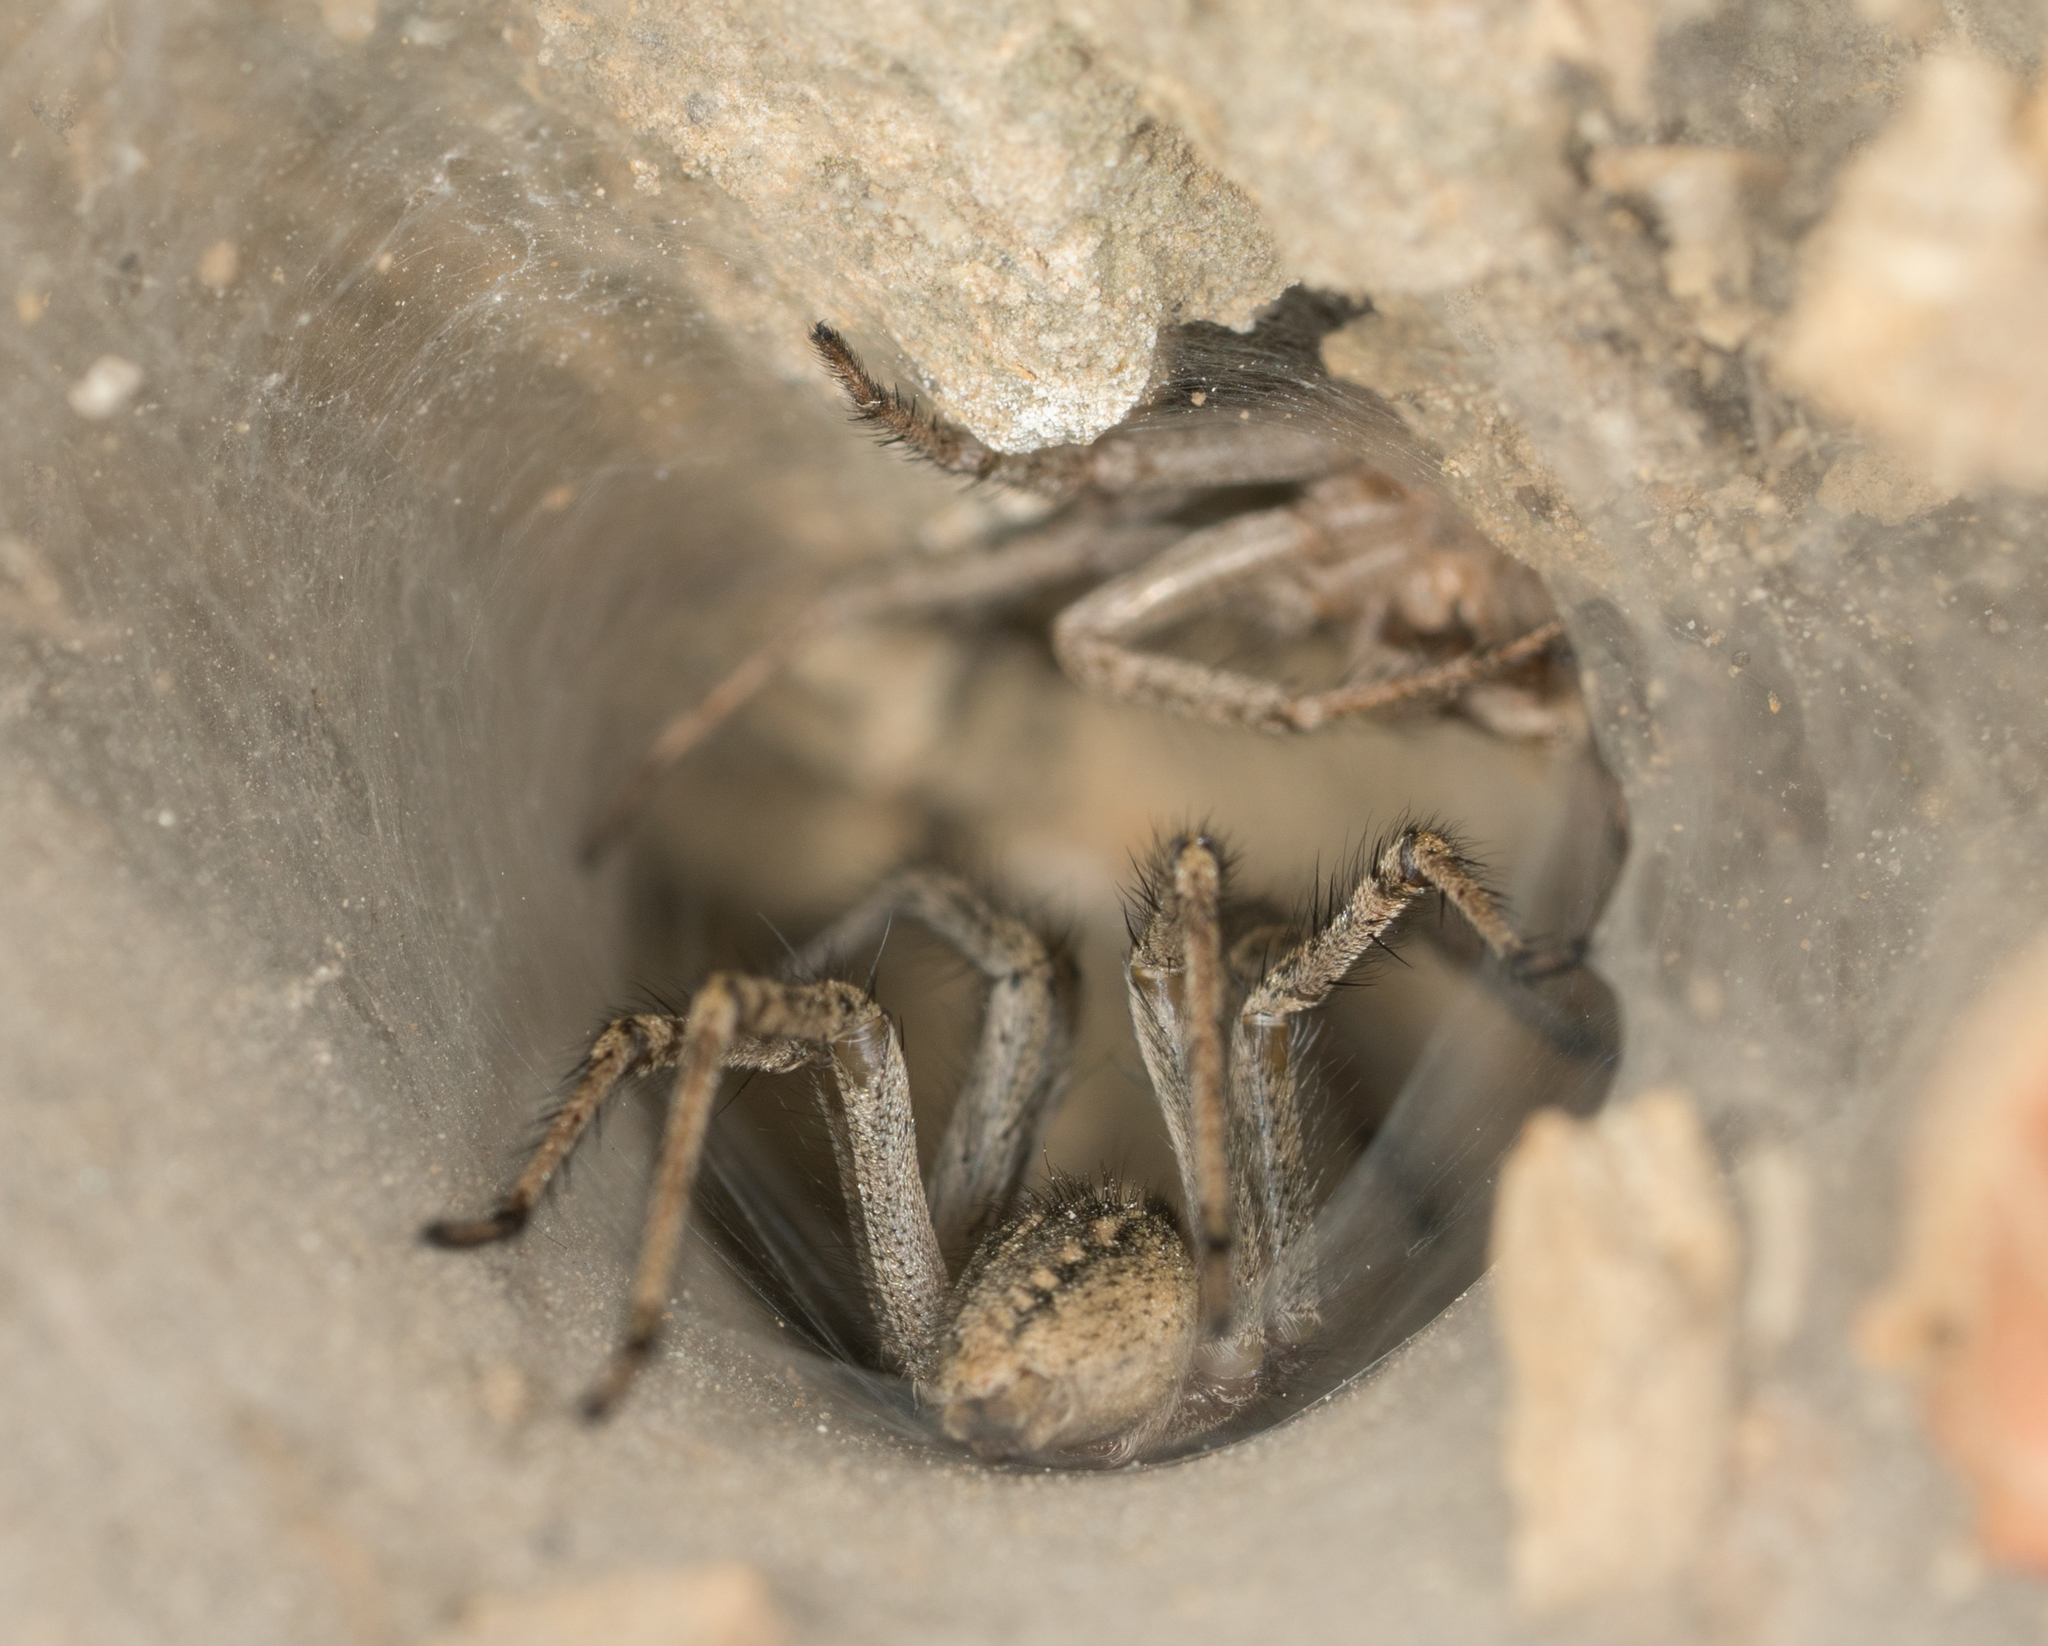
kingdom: Animalia
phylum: Arthropoda
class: Arachnida
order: Araneae
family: Agelenidae
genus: Agelenopsis
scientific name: Agelenopsis
